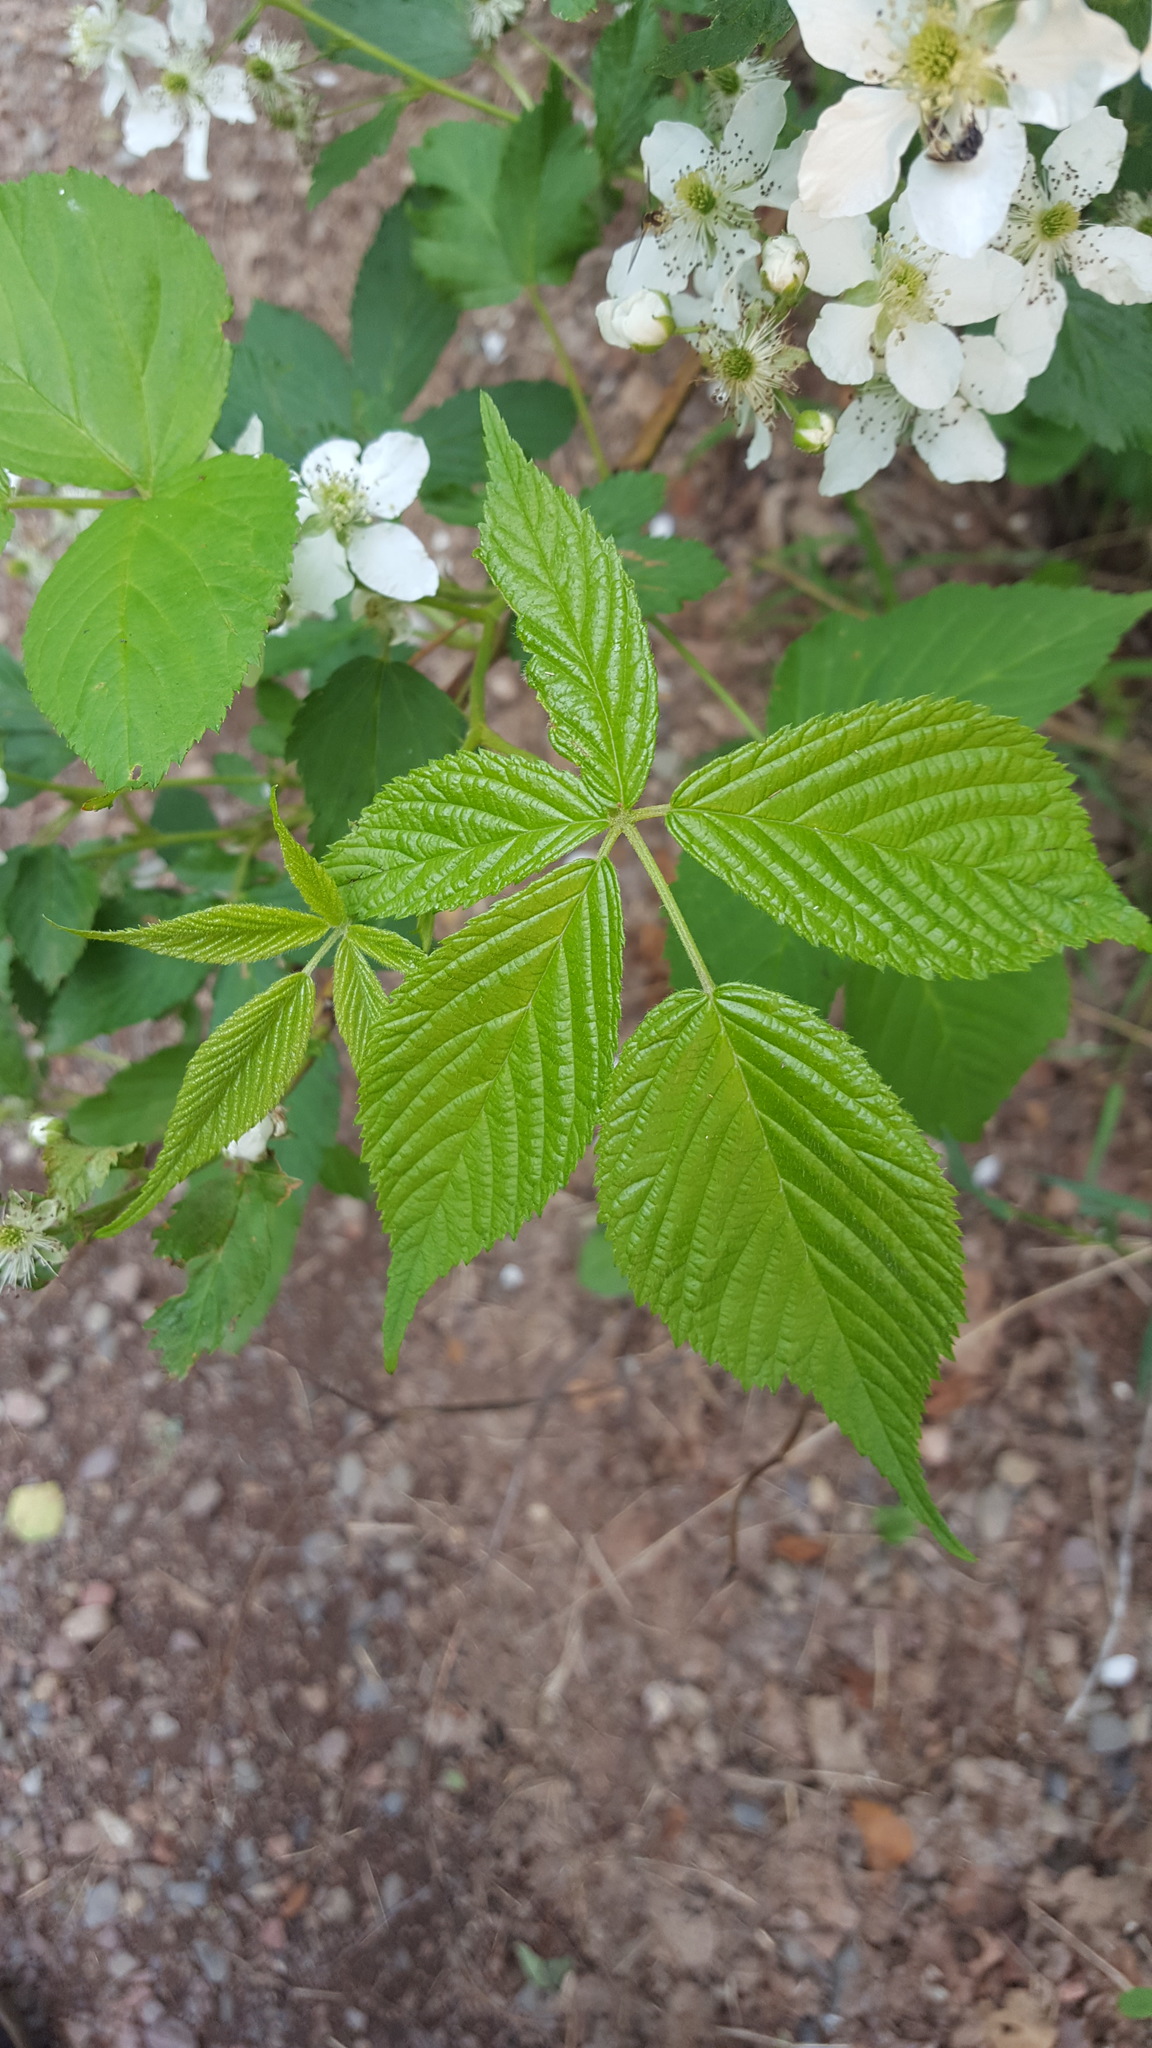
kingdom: Plantae
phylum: Tracheophyta
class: Magnoliopsida
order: Rosales
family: Rosaceae
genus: Rubus
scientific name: Rubus allegheniensis
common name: Allegheny blackberry
